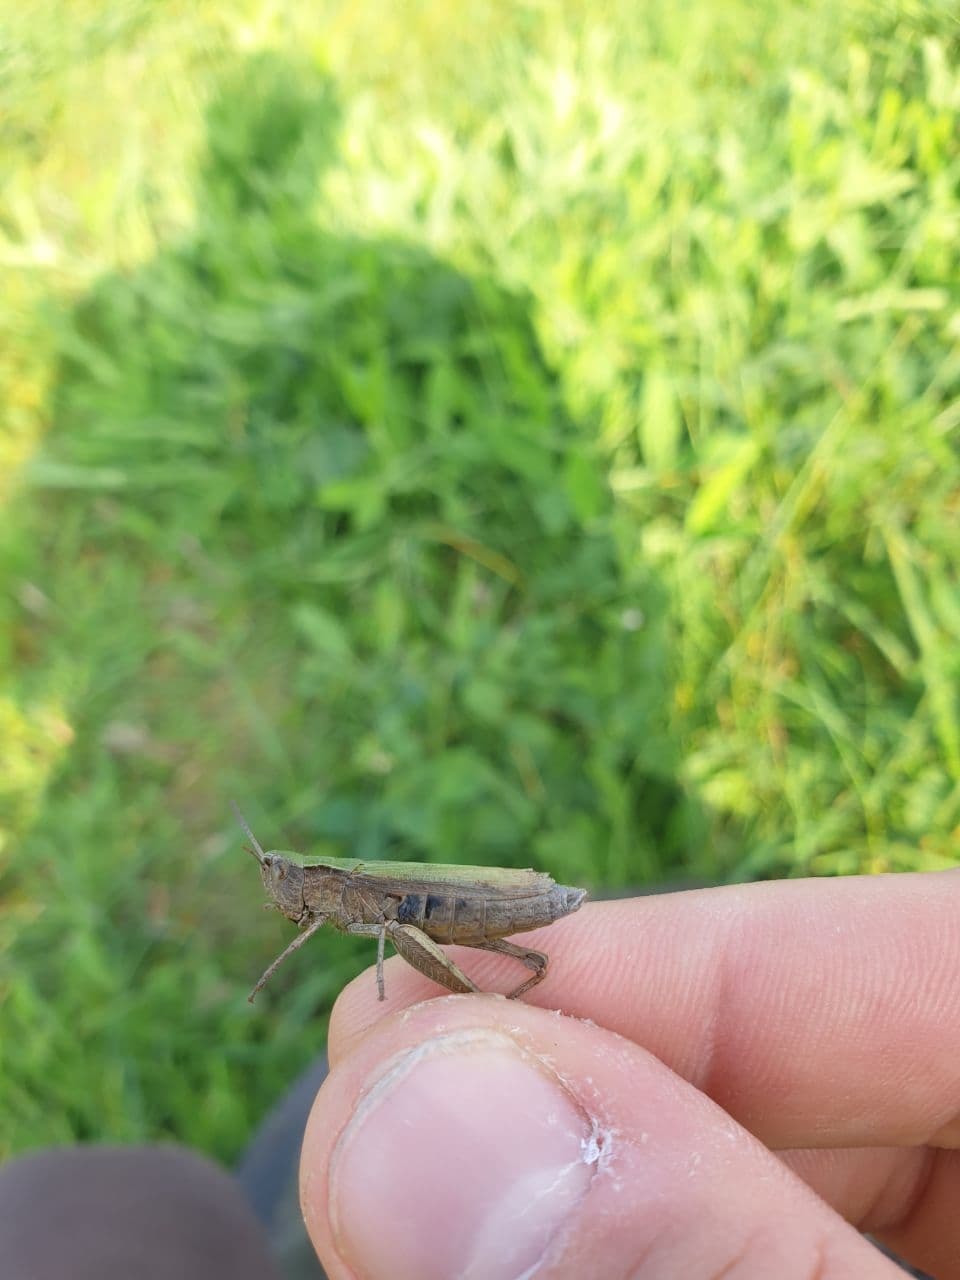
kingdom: Animalia
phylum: Arthropoda
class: Insecta
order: Orthoptera
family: Acrididae
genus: Chorthippus
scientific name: Chorthippus dorsatus
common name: Steppe grasshopper
